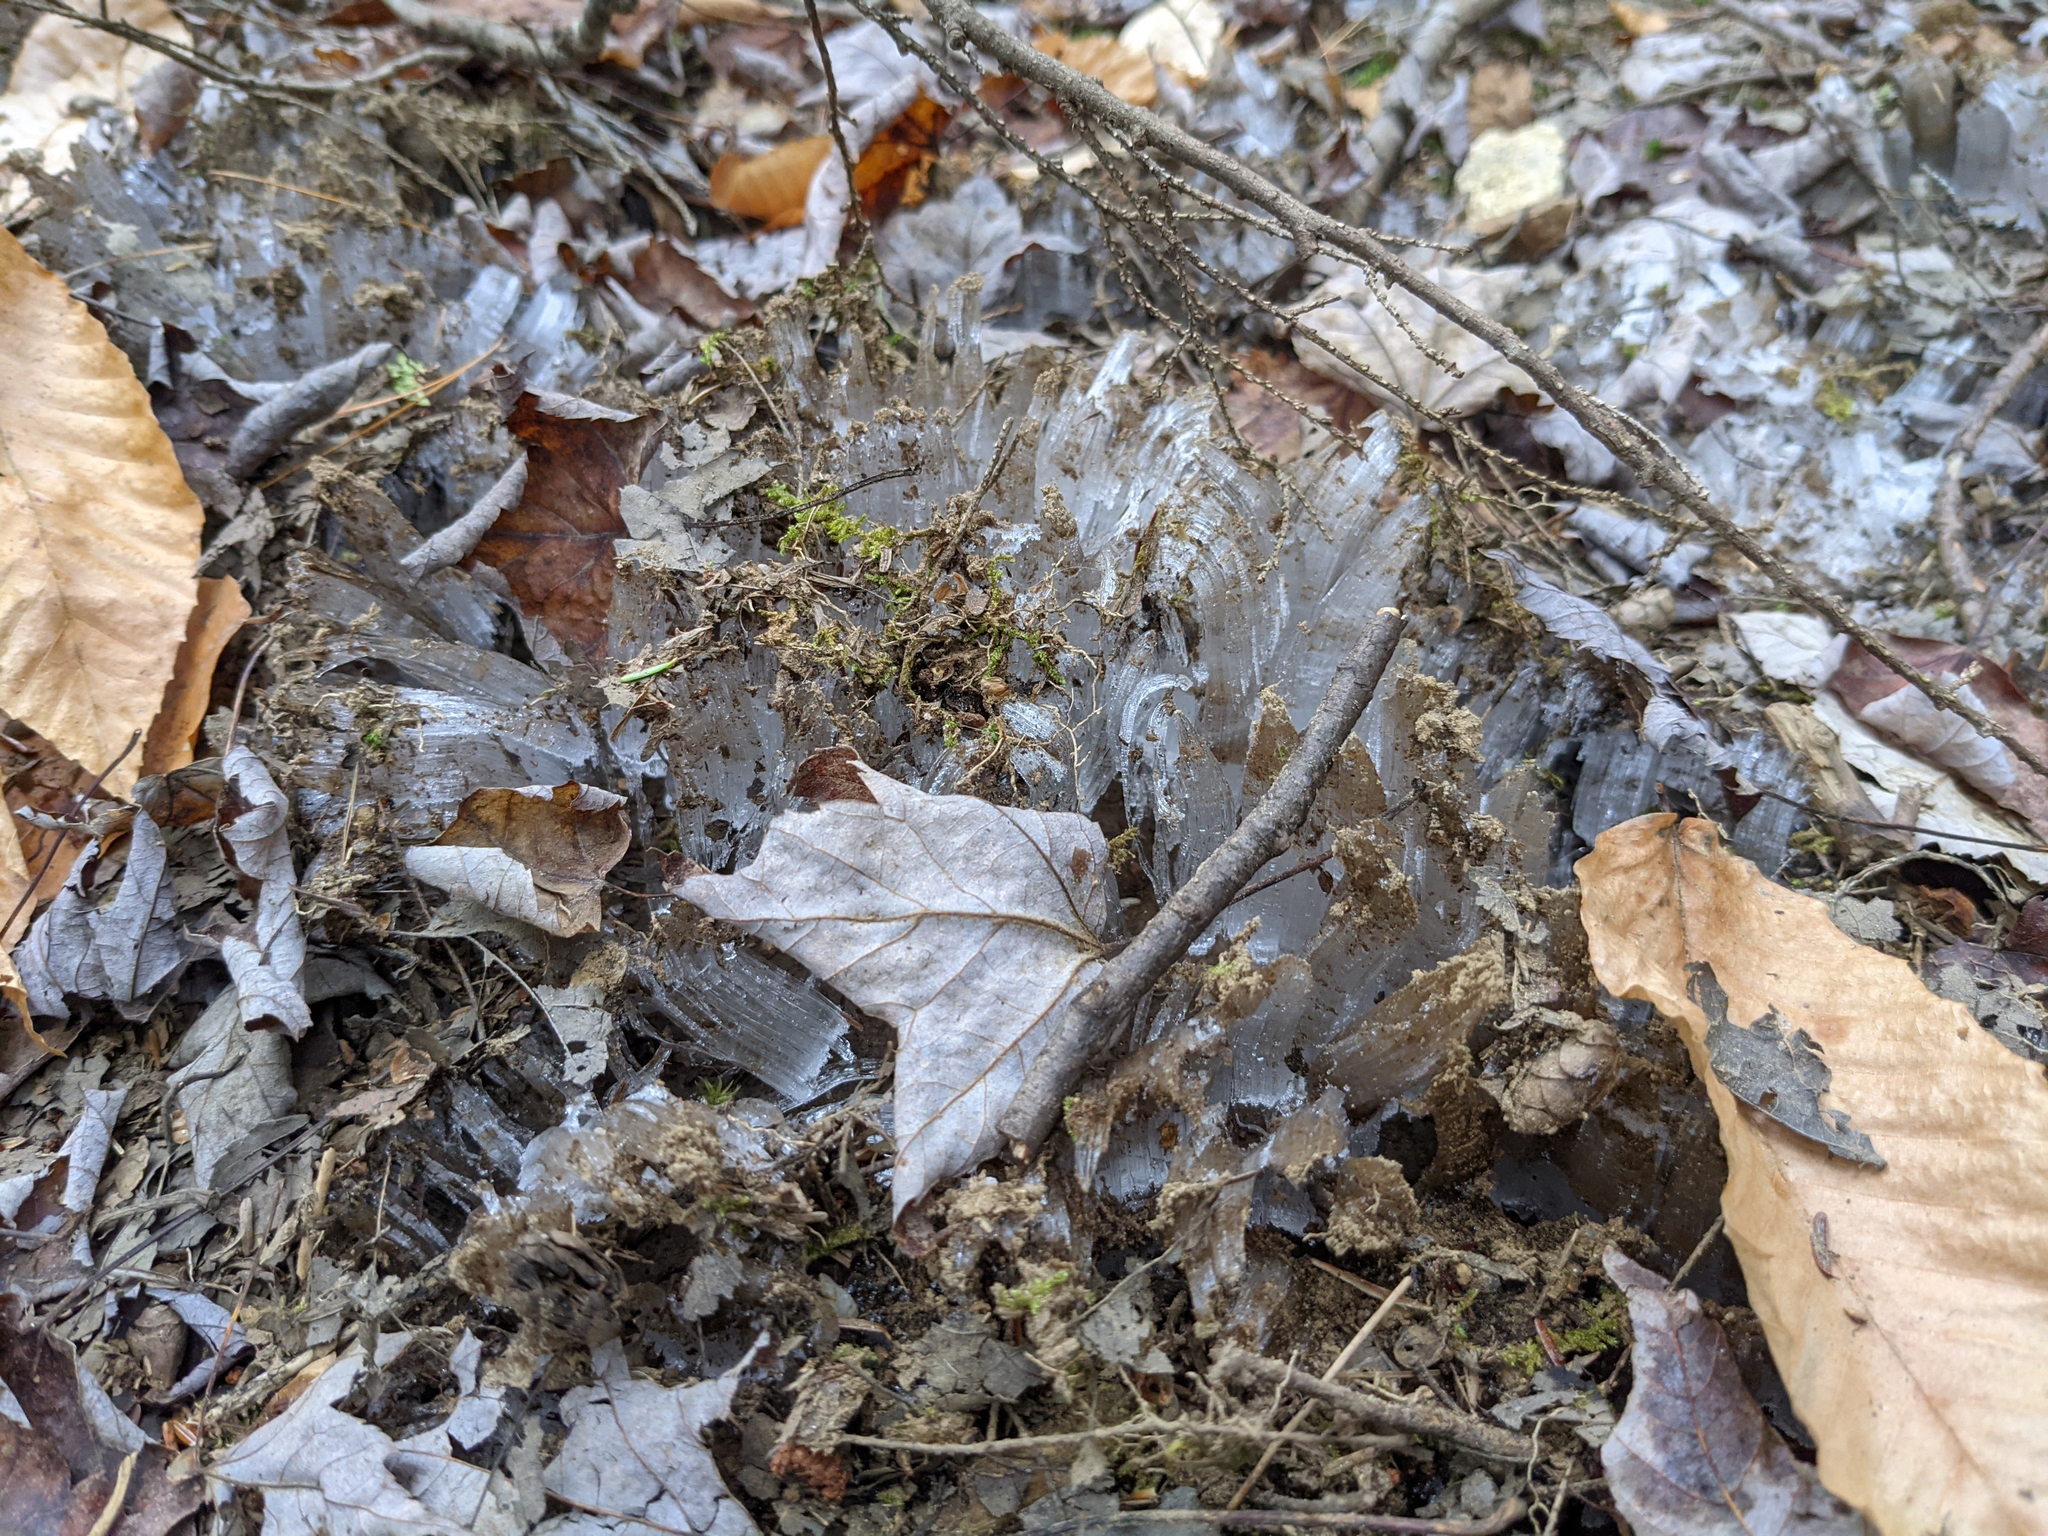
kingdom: Plantae
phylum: Tracheophyta
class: Magnoliopsida
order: Sapindales
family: Sapindaceae
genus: Acer
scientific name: Acer rubrum
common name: Red maple
